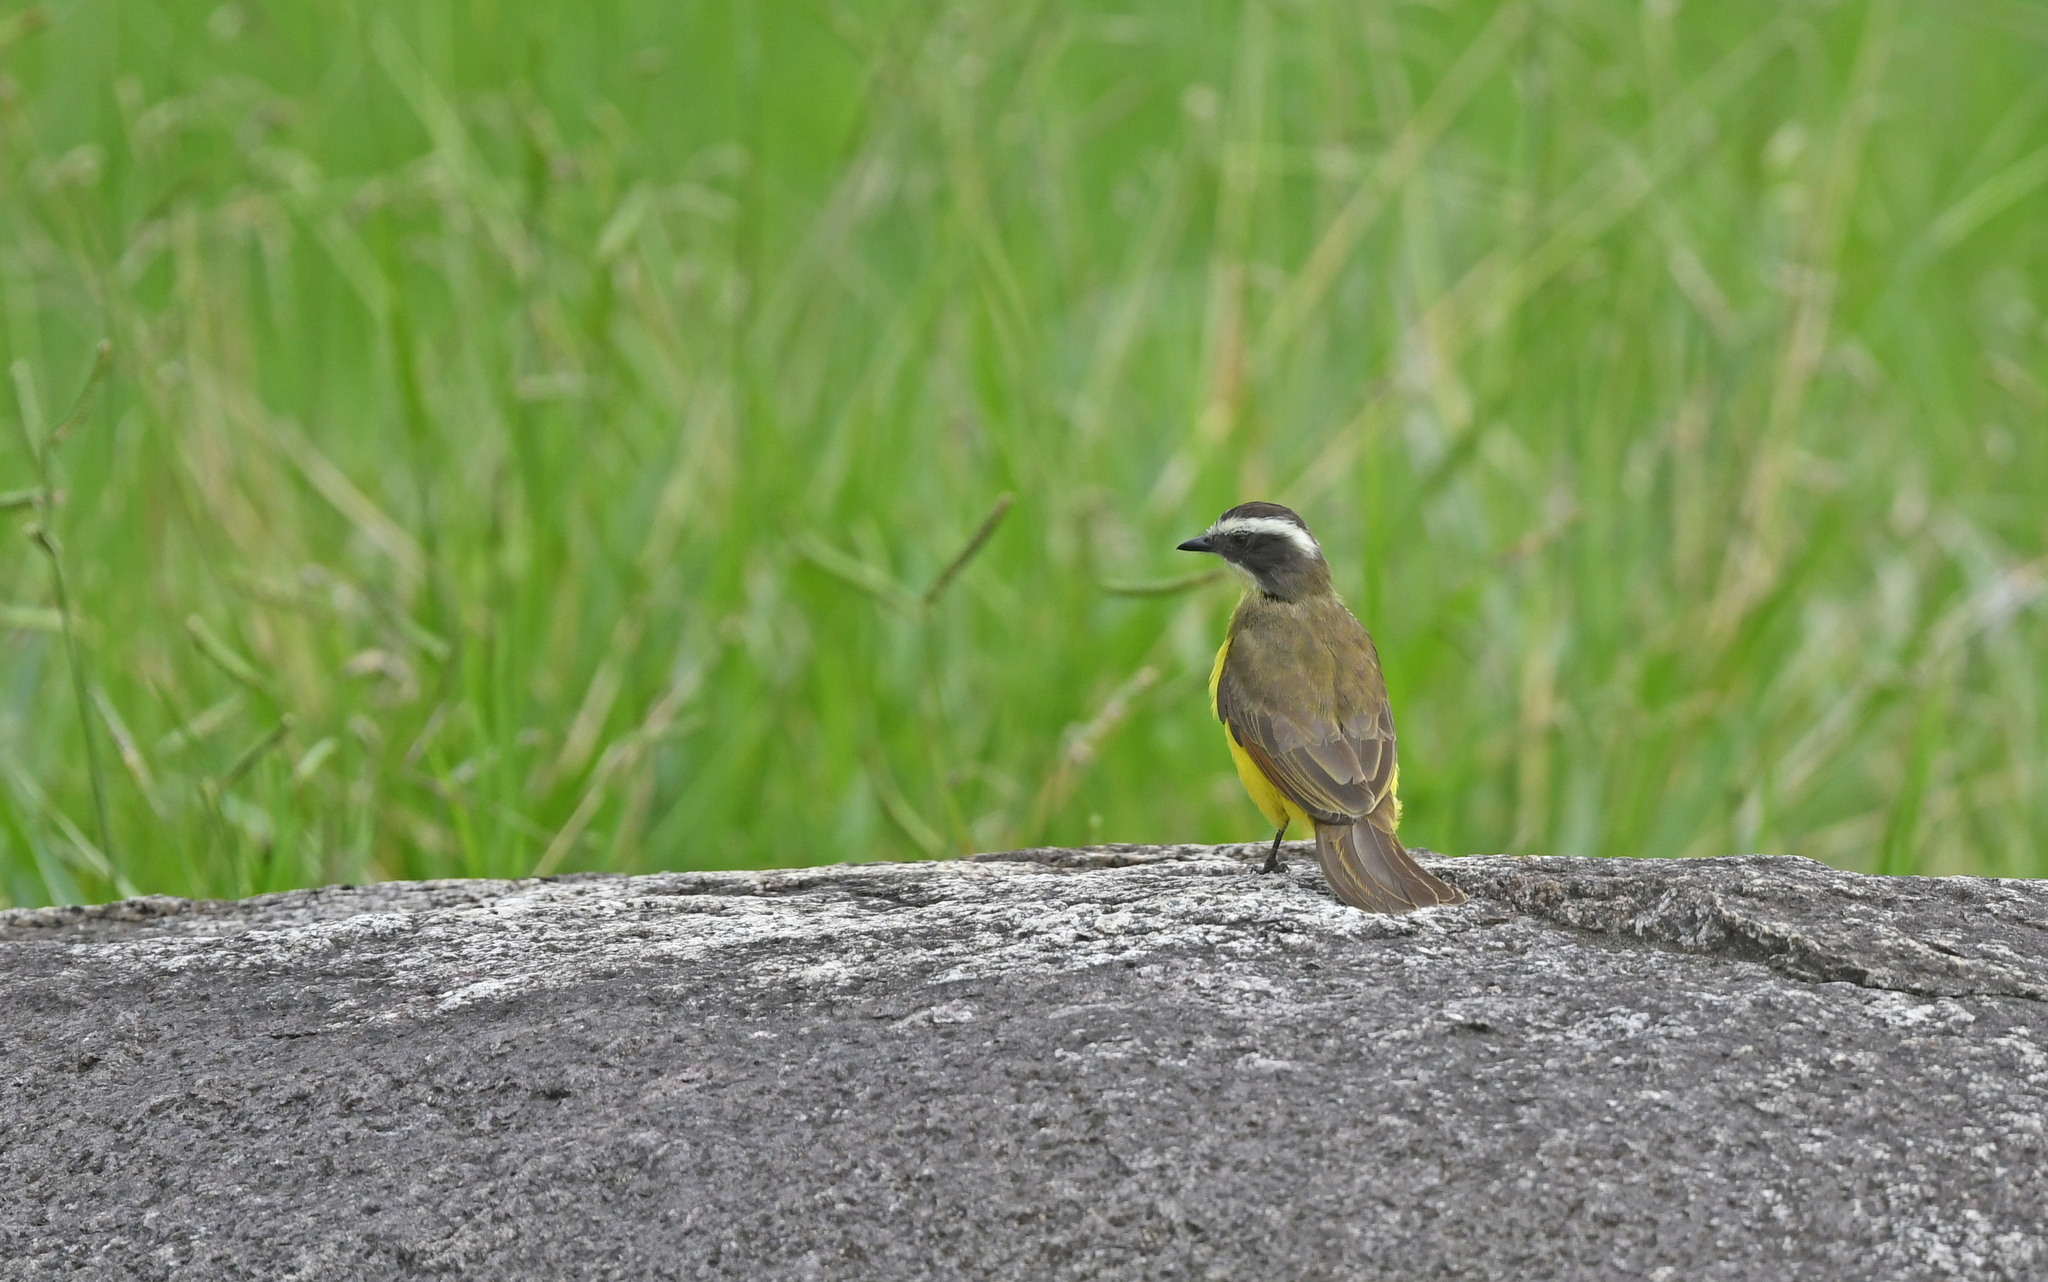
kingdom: Animalia
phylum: Chordata
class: Aves
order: Passeriformes
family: Tyrannidae
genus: Myiozetetes
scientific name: Myiozetetes similis
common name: Social flycatcher
